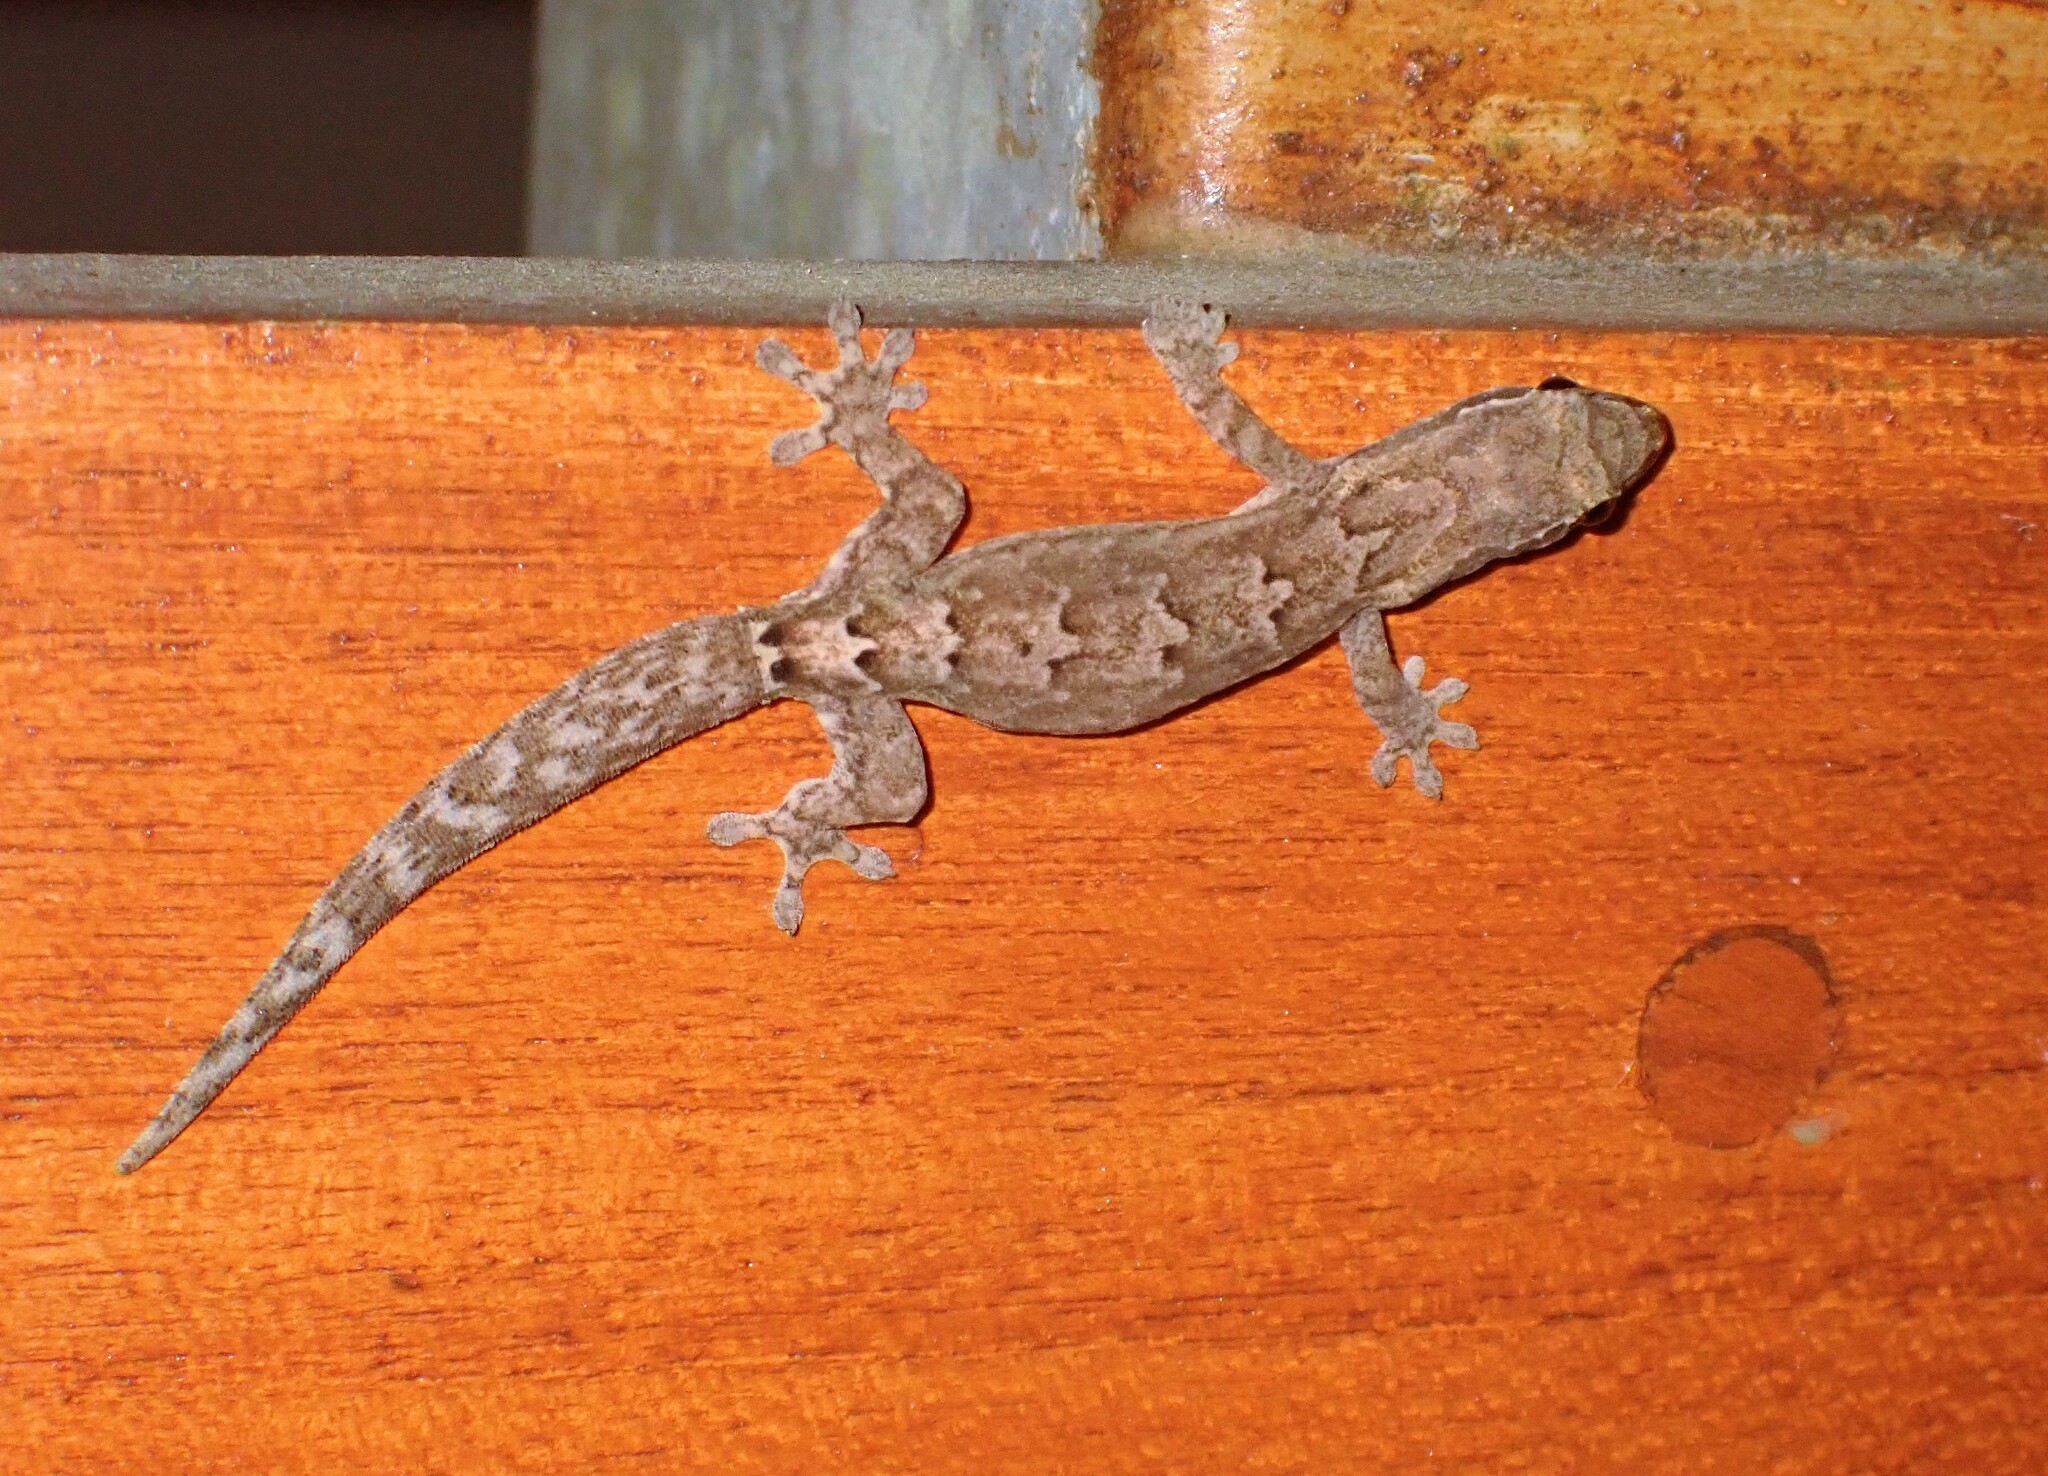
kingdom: Animalia
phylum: Chordata
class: Squamata
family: Gekkonidae
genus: Lepidodactylus
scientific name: Lepidodactylus lugubris
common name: Mourning gecko
